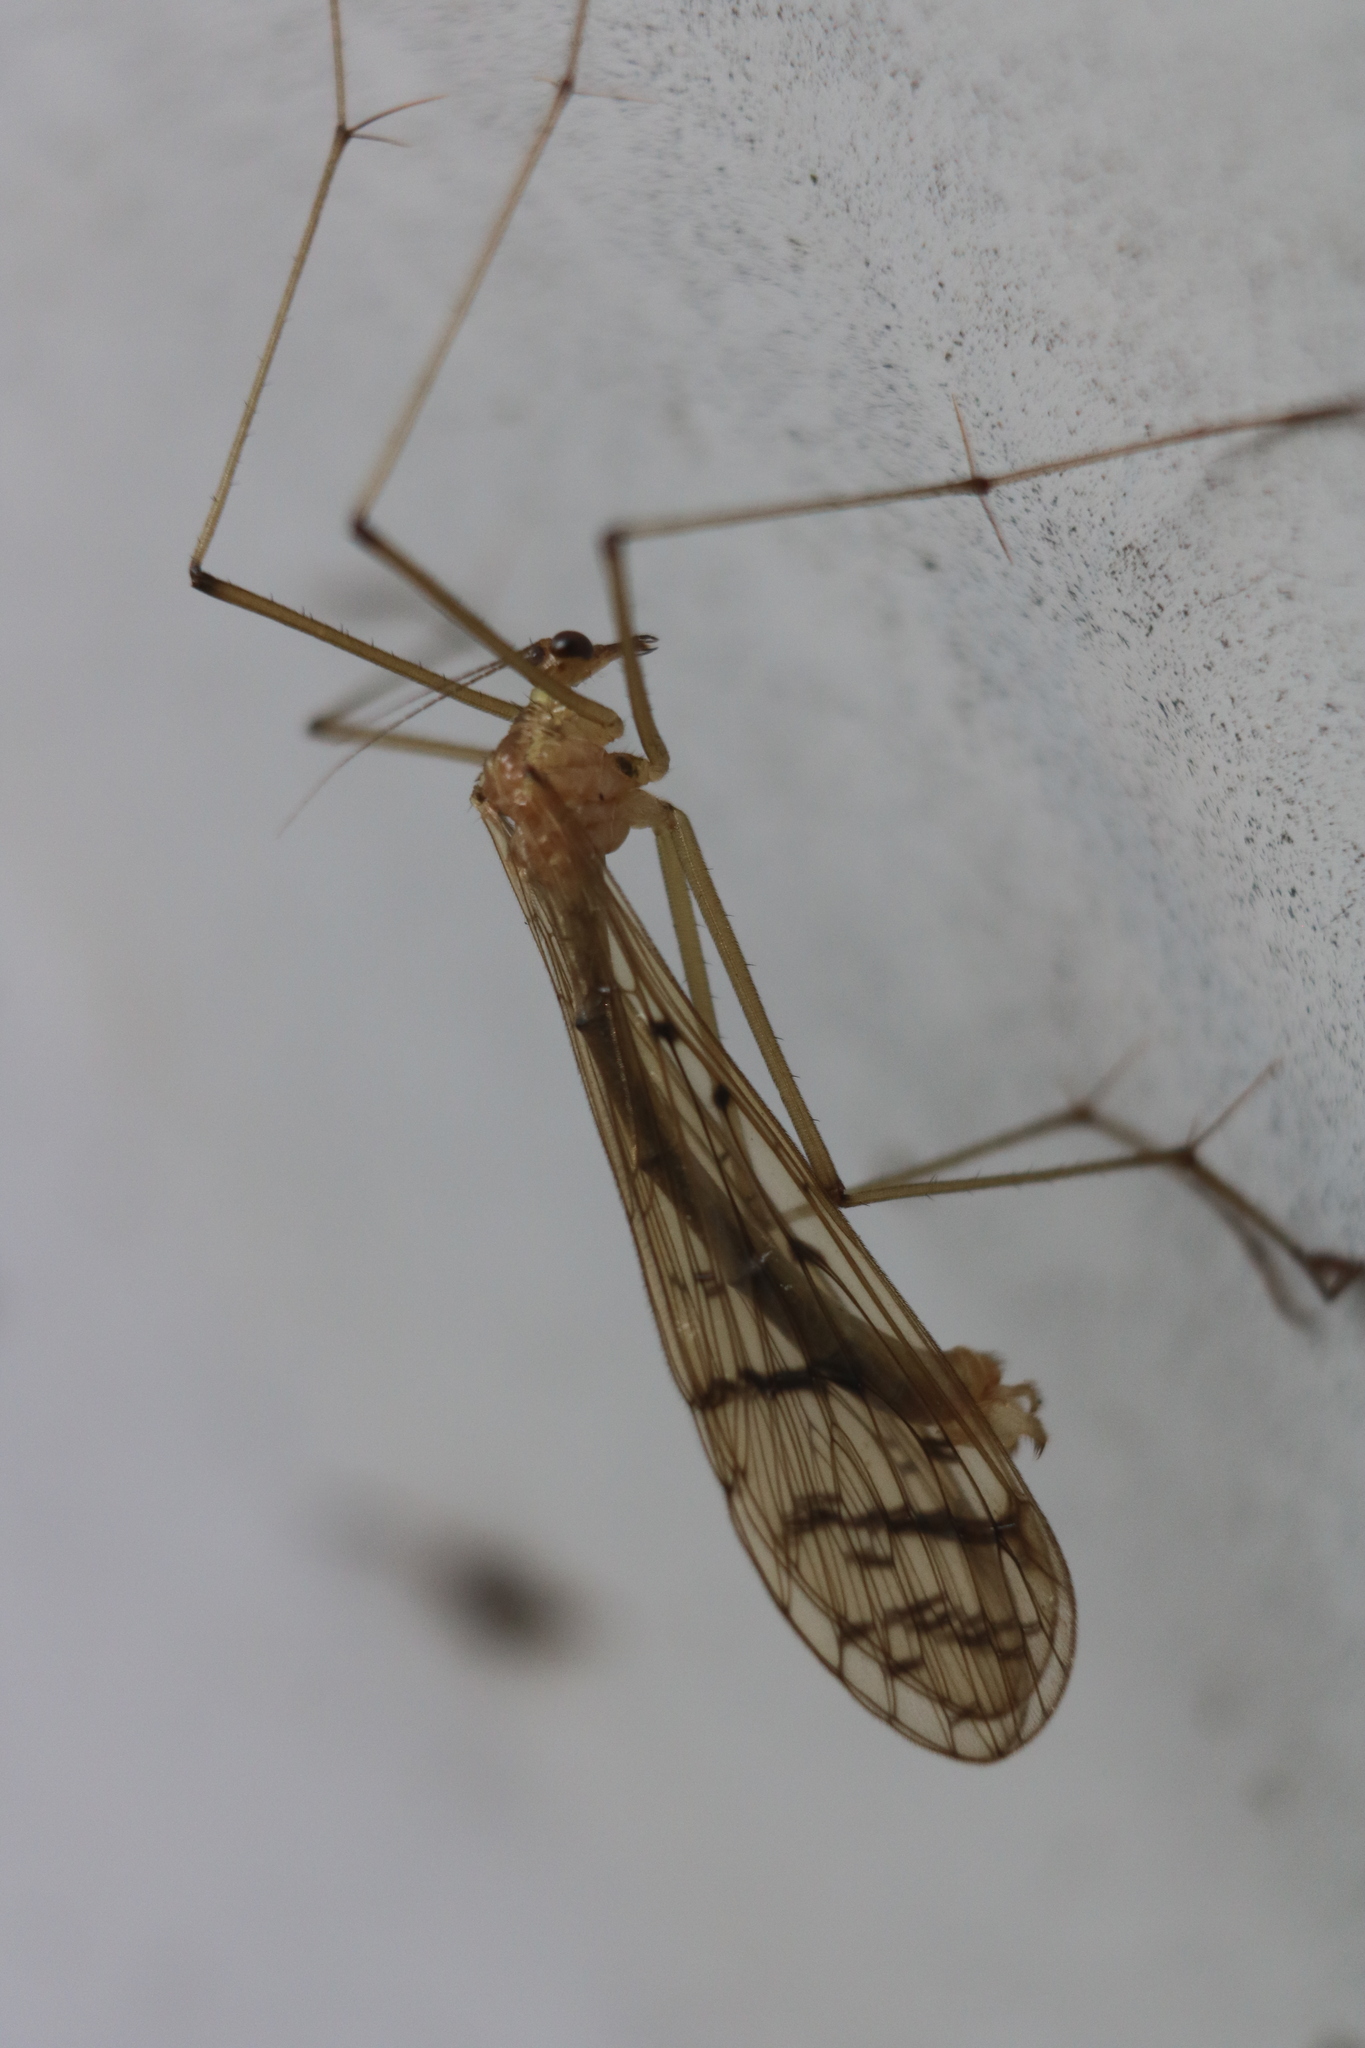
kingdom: Animalia
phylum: Arthropoda
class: Insecta
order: Mecoptera
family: Bittacidae
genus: Bittacus
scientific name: Bittacus strigosus
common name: Thin hangingfly
